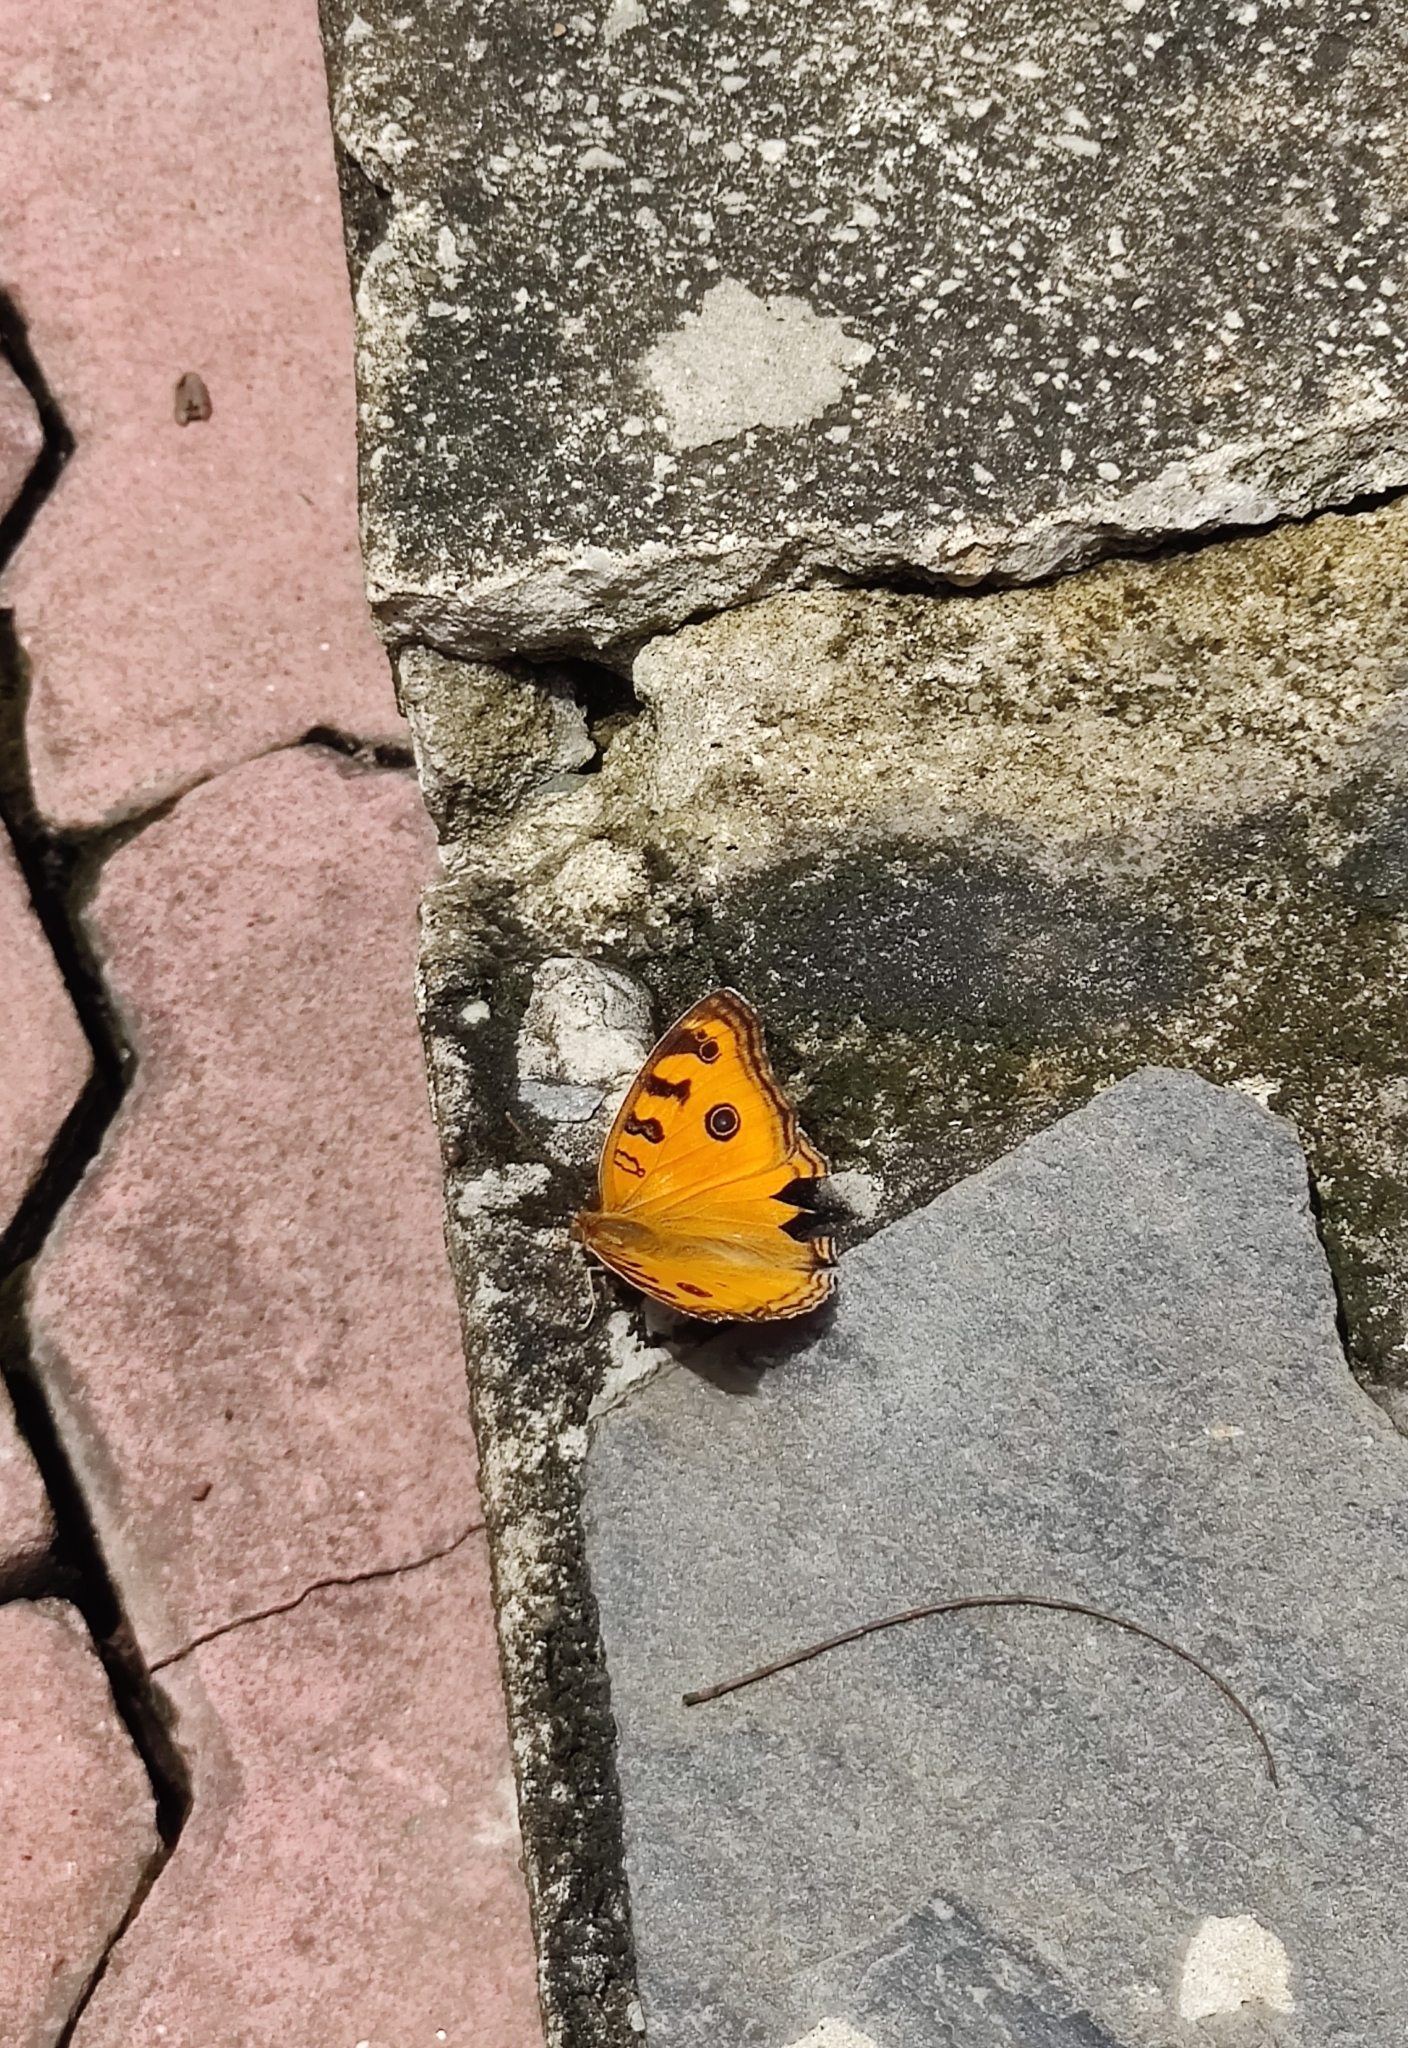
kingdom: Animalia
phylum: Arthropoda
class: Insecta
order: Lepidoptera
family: Nymphalidae
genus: Junonia
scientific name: Junonia almana
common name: Peacock pansy
